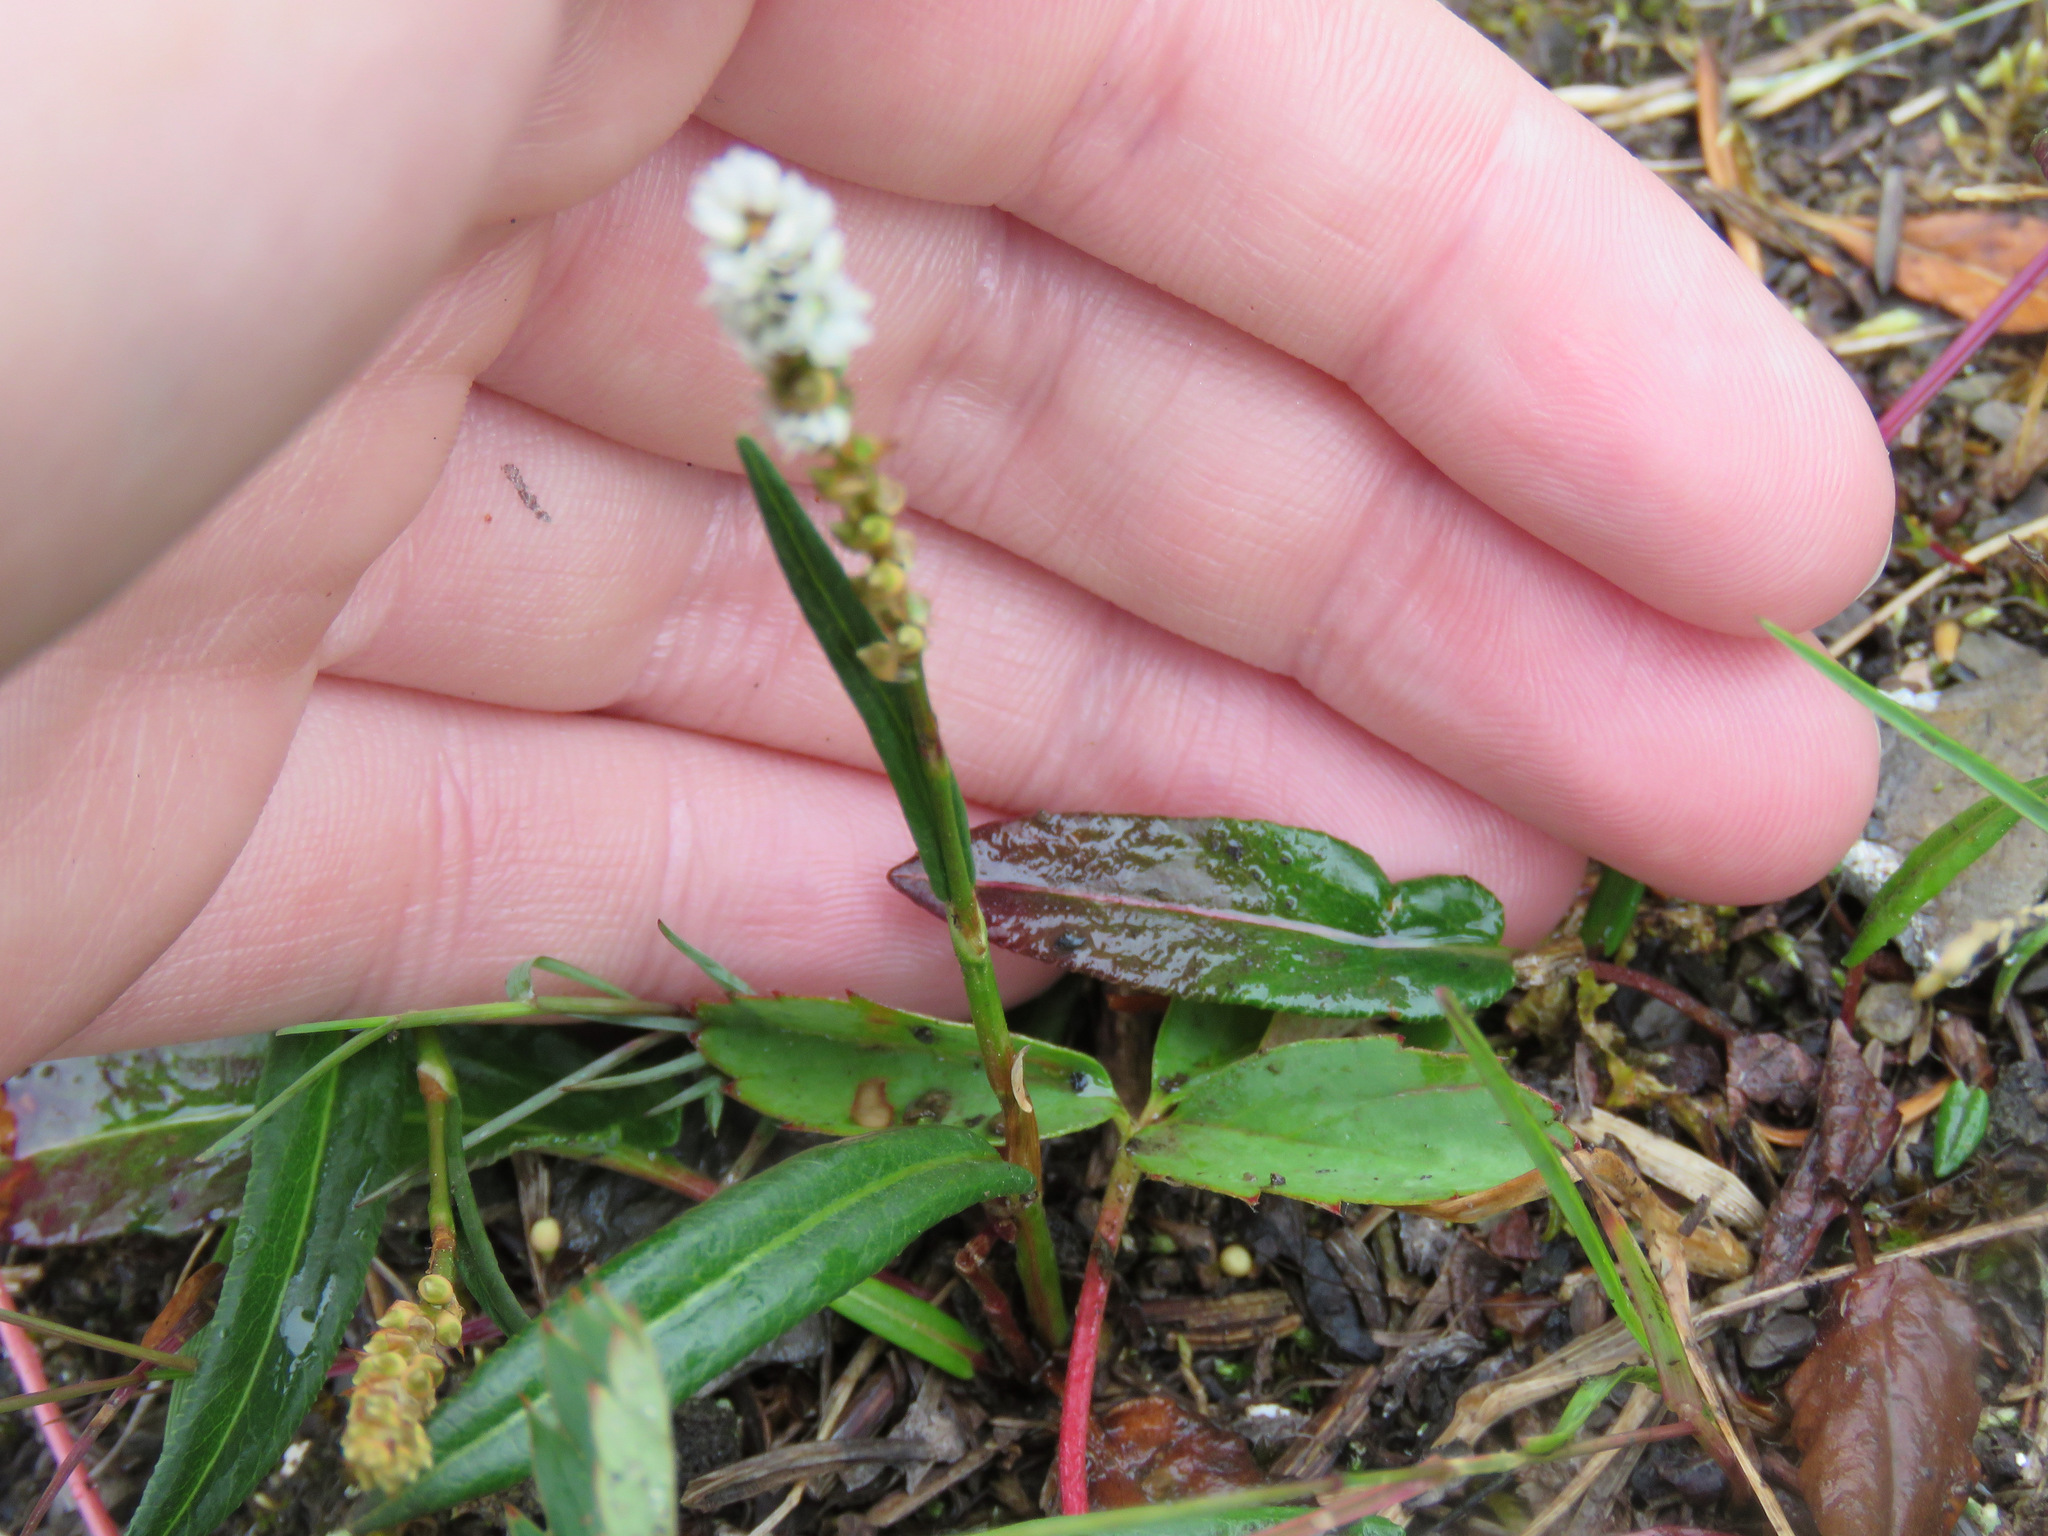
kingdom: Plantae
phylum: Tracheophyta
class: Magnoliopsida
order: Caryophyllales
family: Polygonaceae
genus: Bistorta
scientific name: Bistorta vivipara
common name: Alpine bistort
